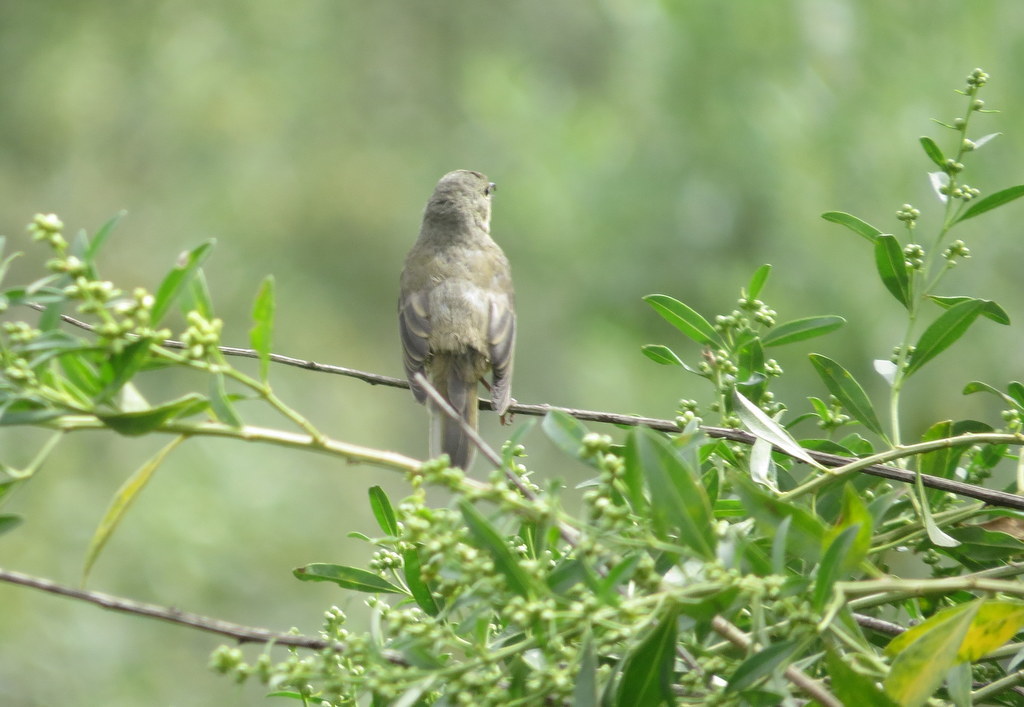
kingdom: Animalia
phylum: Chordata
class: Aves
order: Passeriformes
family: Thraupidae
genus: Diglossa
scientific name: Diglossa sittoides
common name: Rusty flowerpiercer
